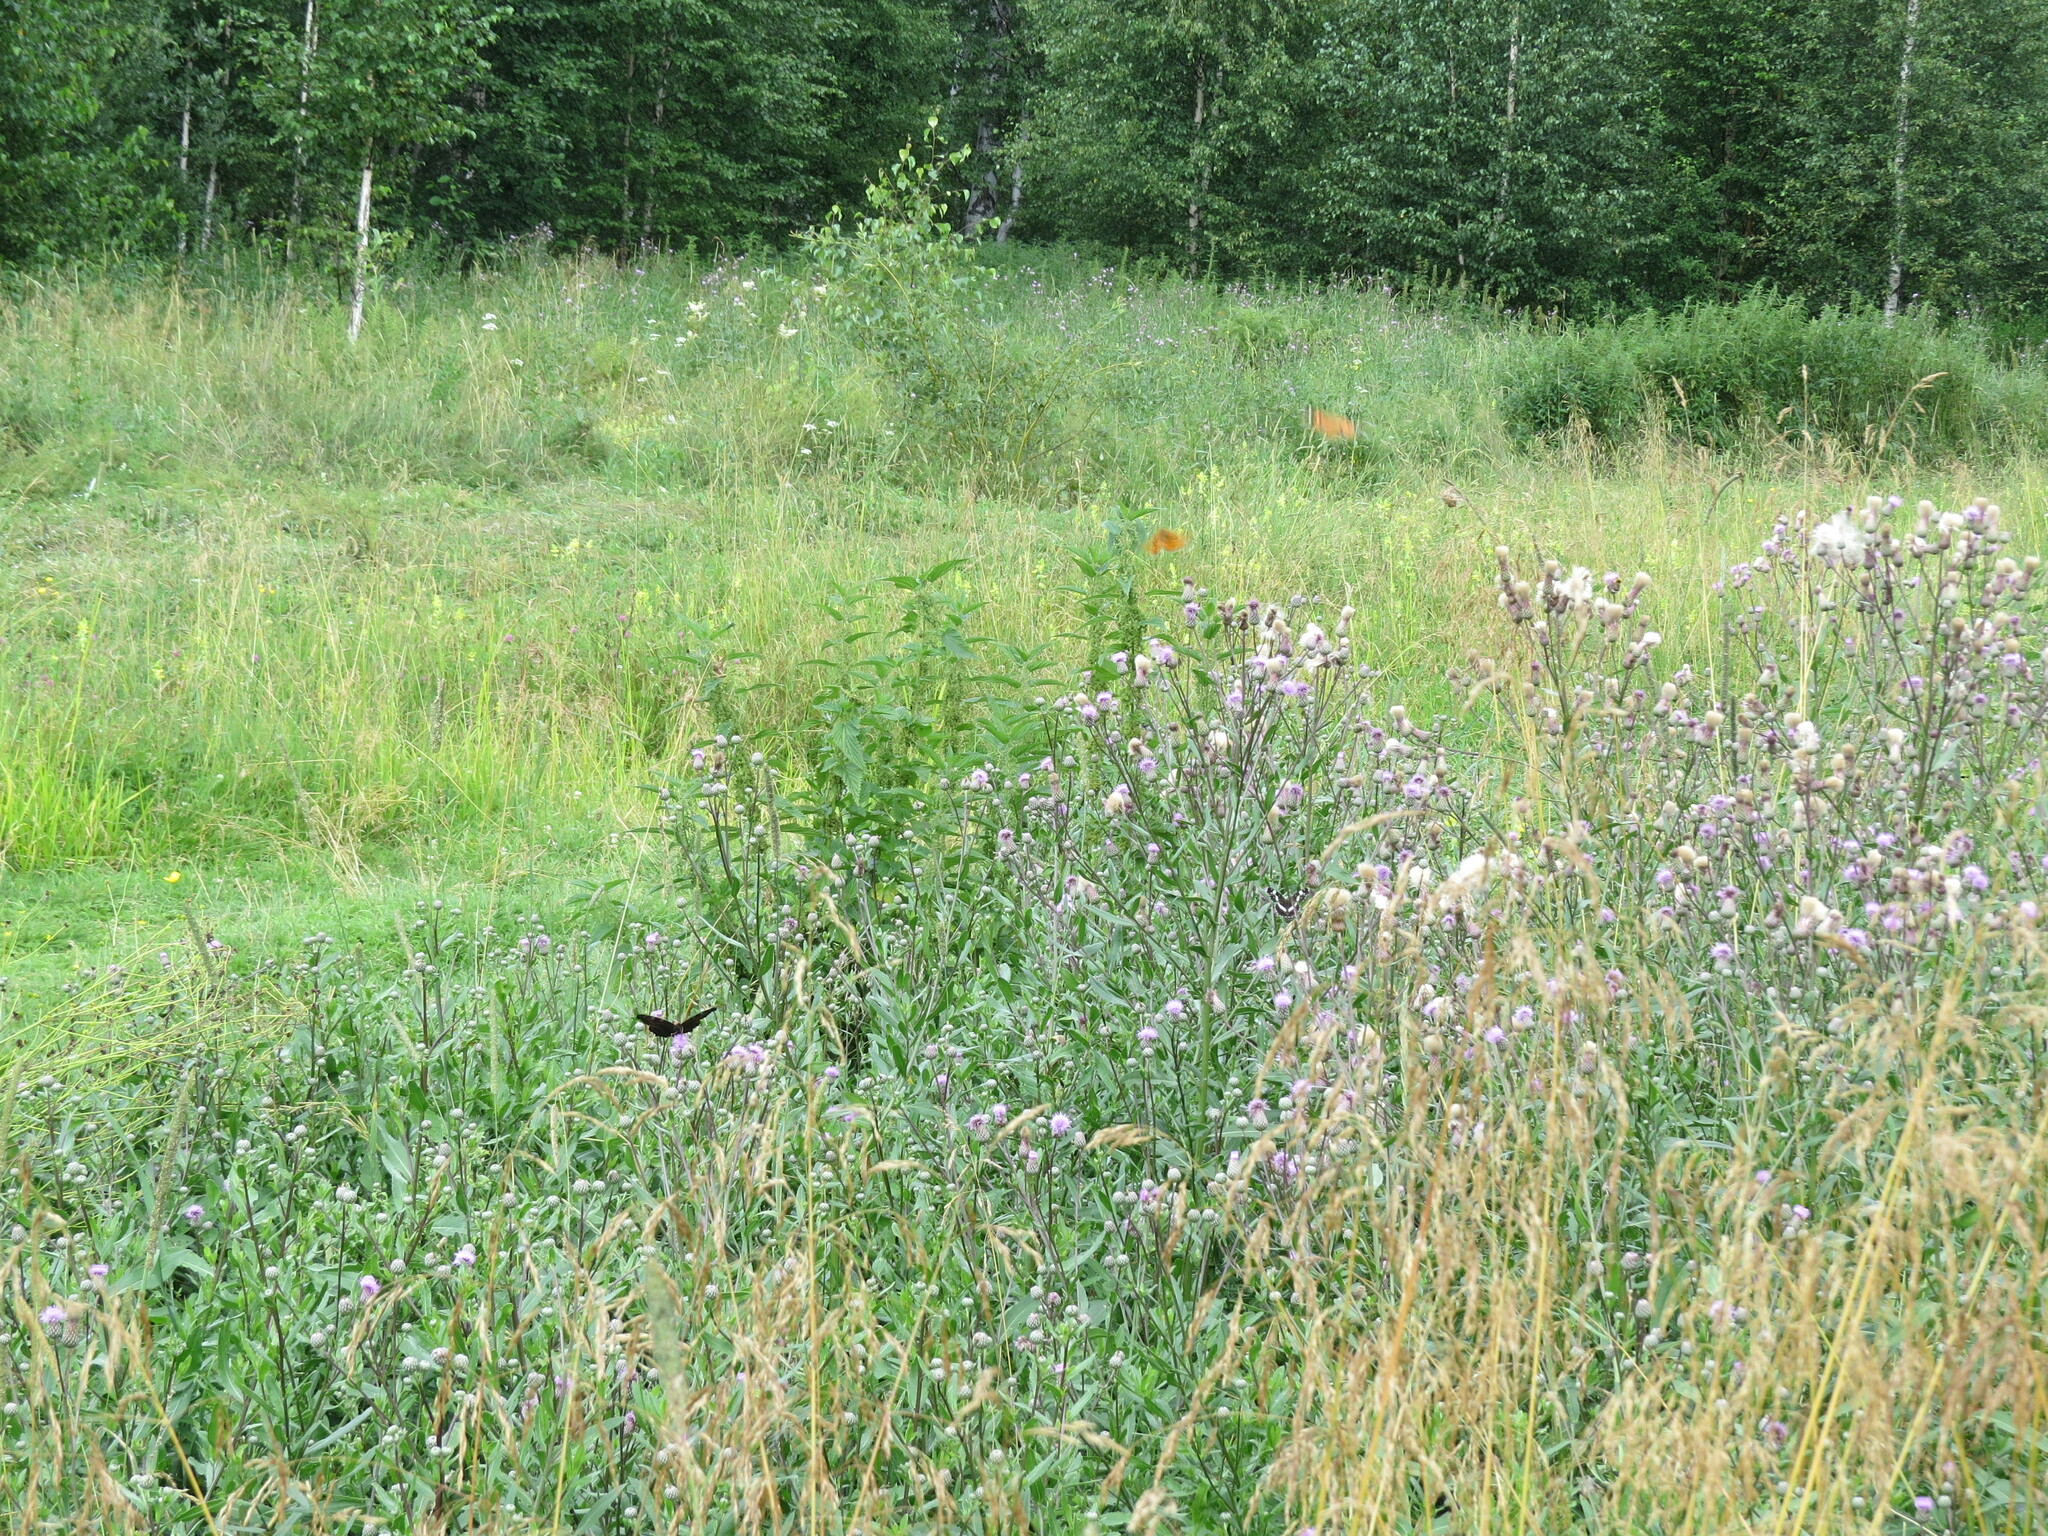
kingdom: Animalia
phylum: Arthropoda
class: Insecta
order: Lepidoptera
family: Nymphalidae
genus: Aglais
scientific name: Aglais io
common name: Peacock
